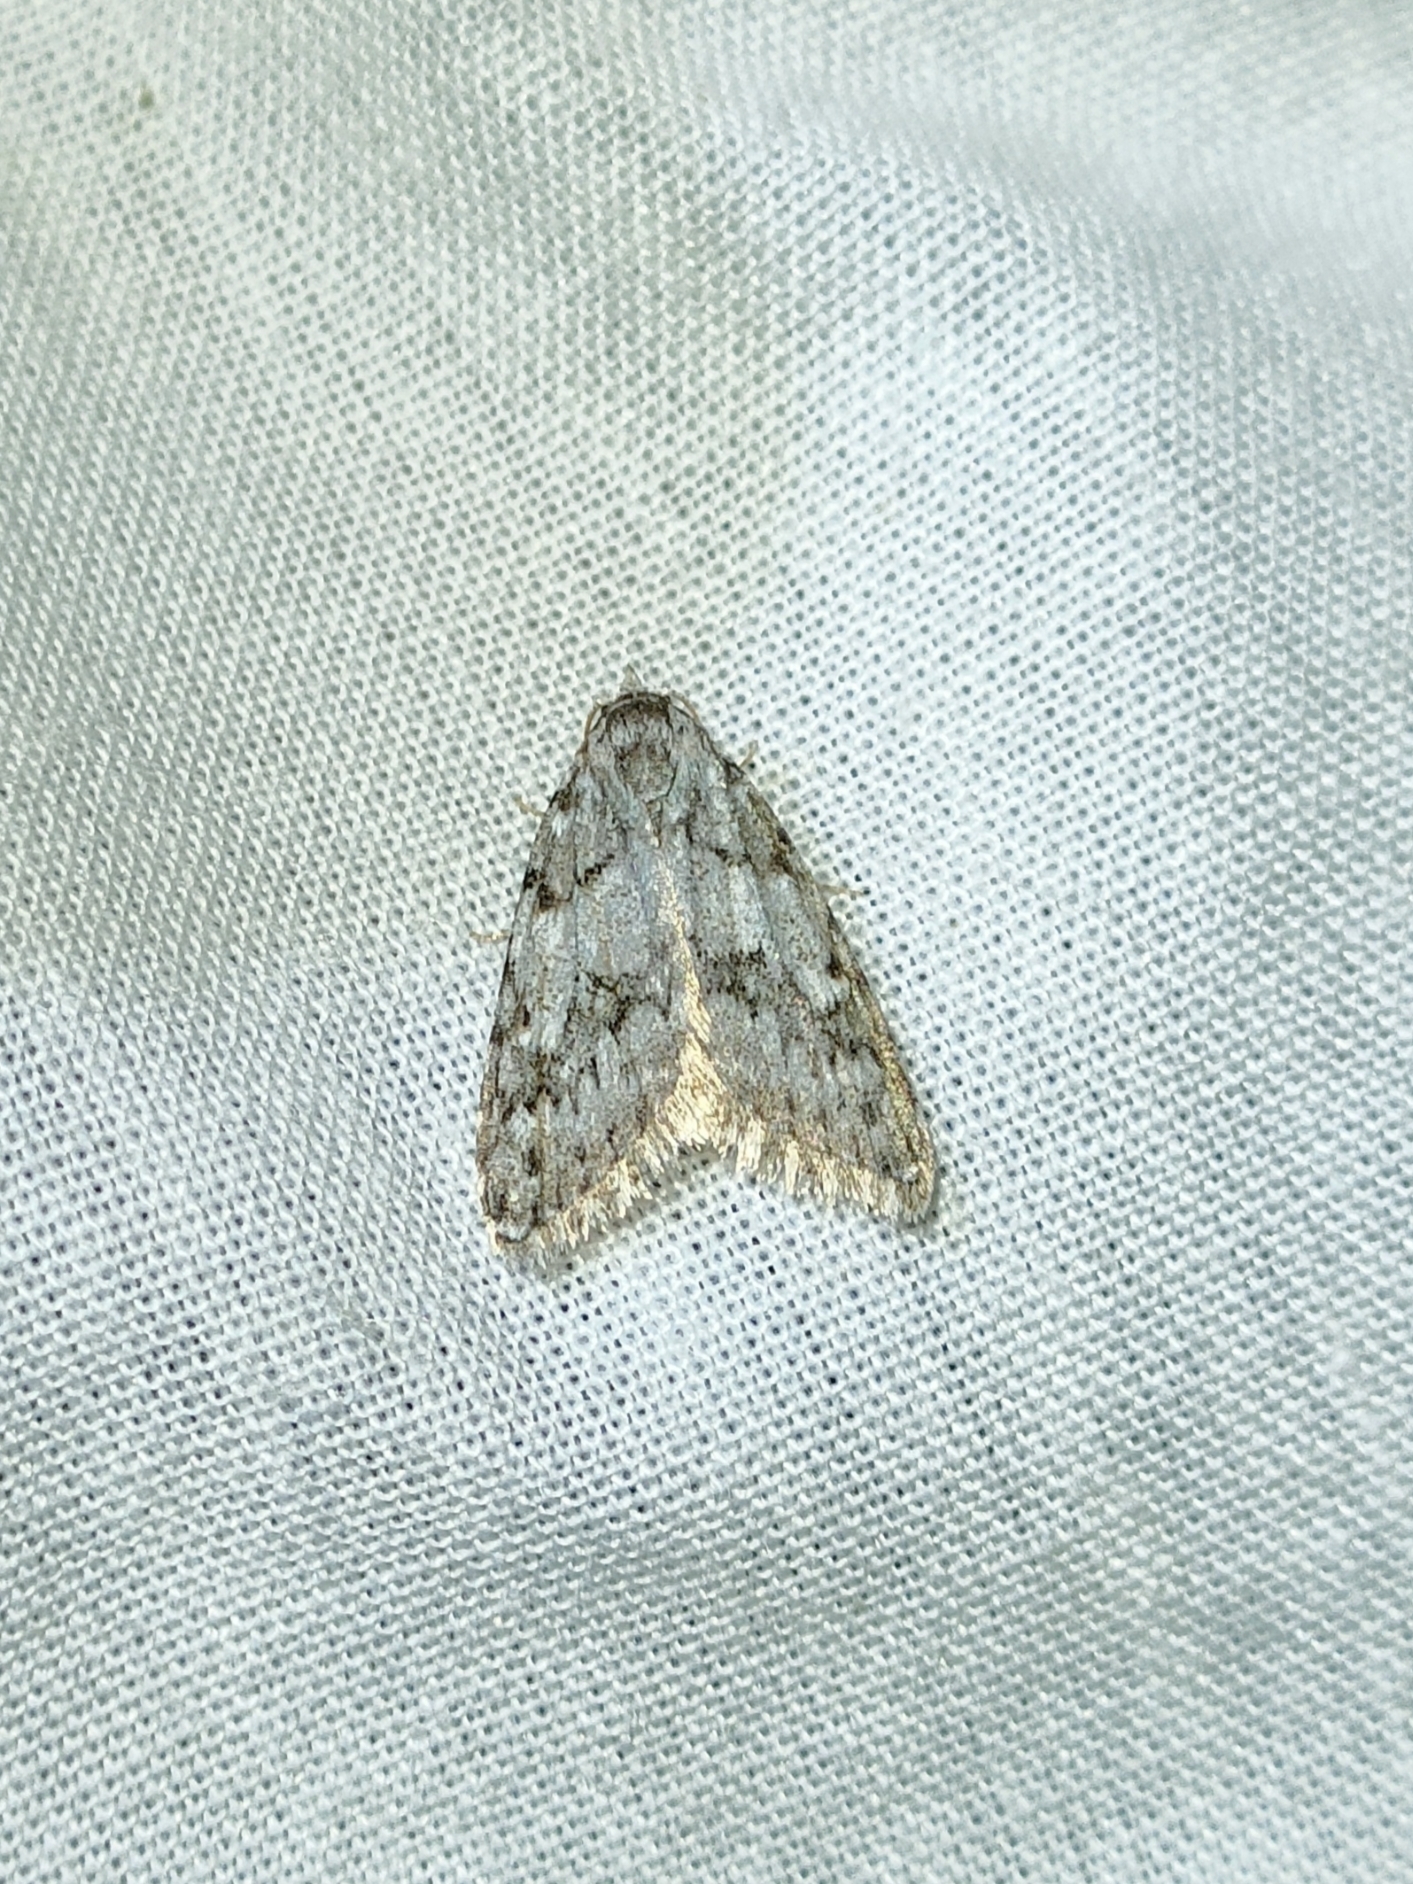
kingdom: Animalia
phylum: Arthropoda
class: Insecta
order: Lepidoptera
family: Nolidae
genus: Nola
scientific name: Nola cicatricalis
